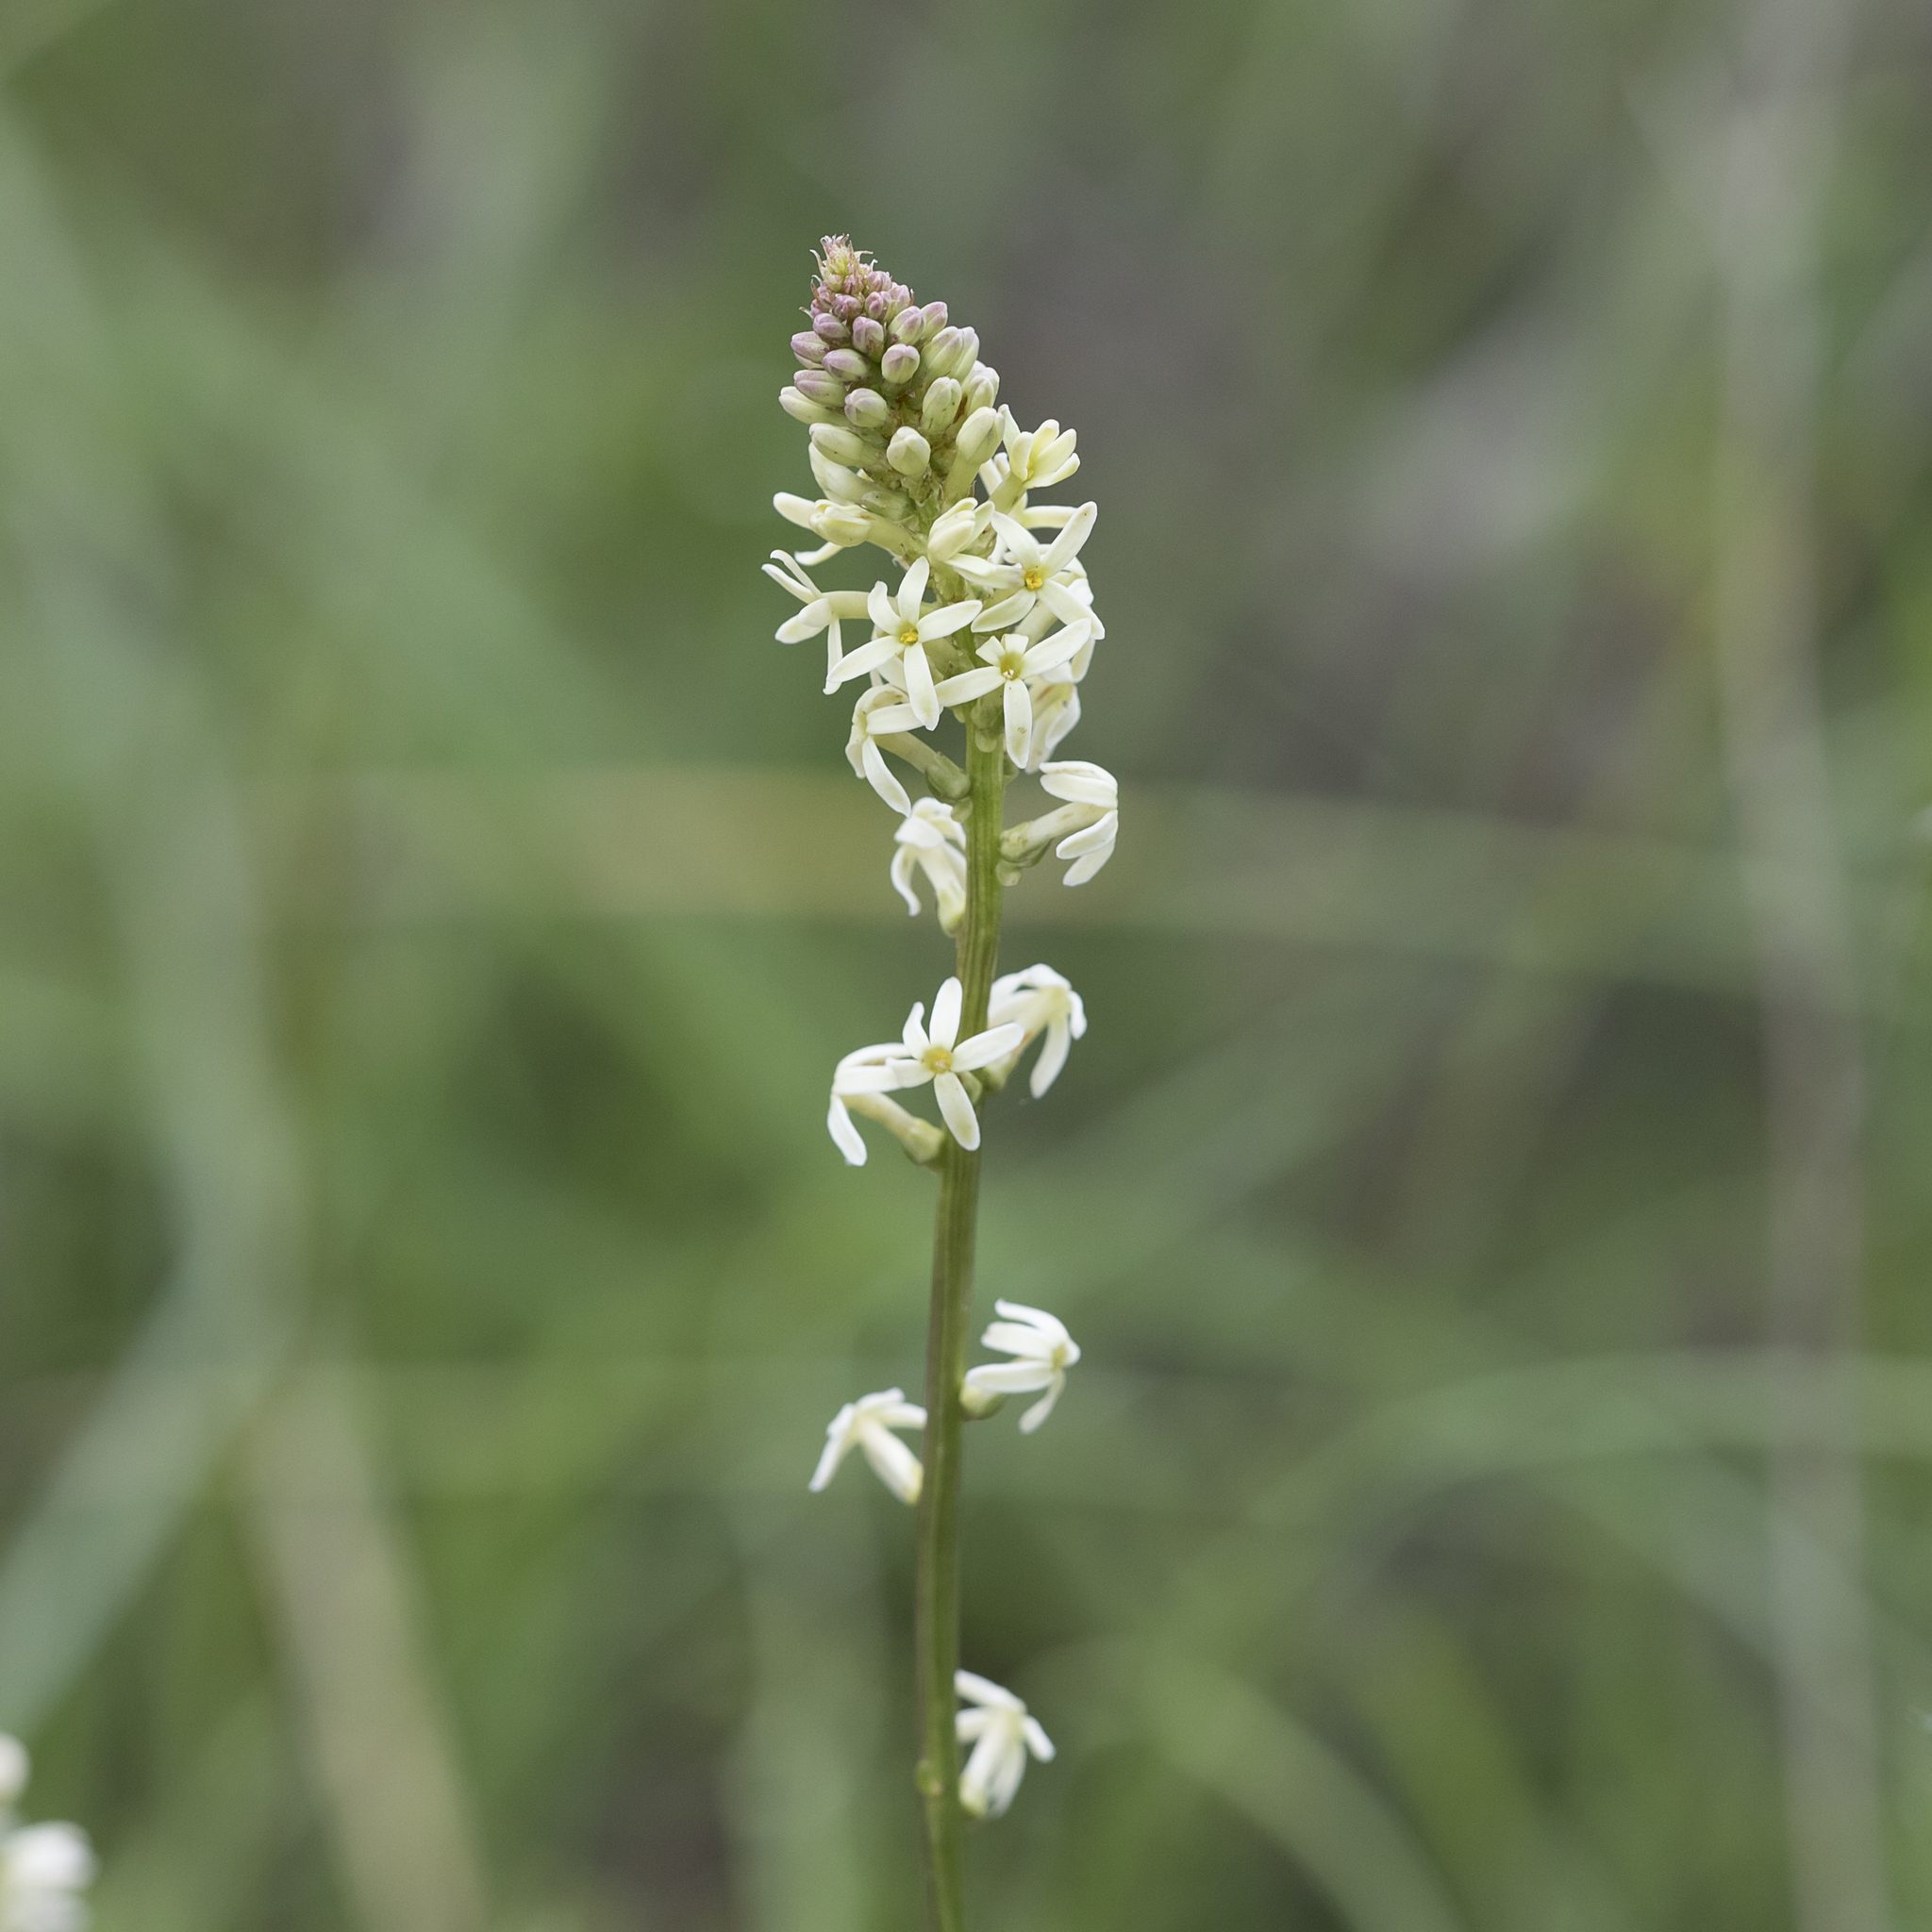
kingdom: Plantae
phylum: Tracheophyta
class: Magnoliopsida
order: Celastrales
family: Celastraceae
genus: Stackhousia
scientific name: Stackhousia monogyna
